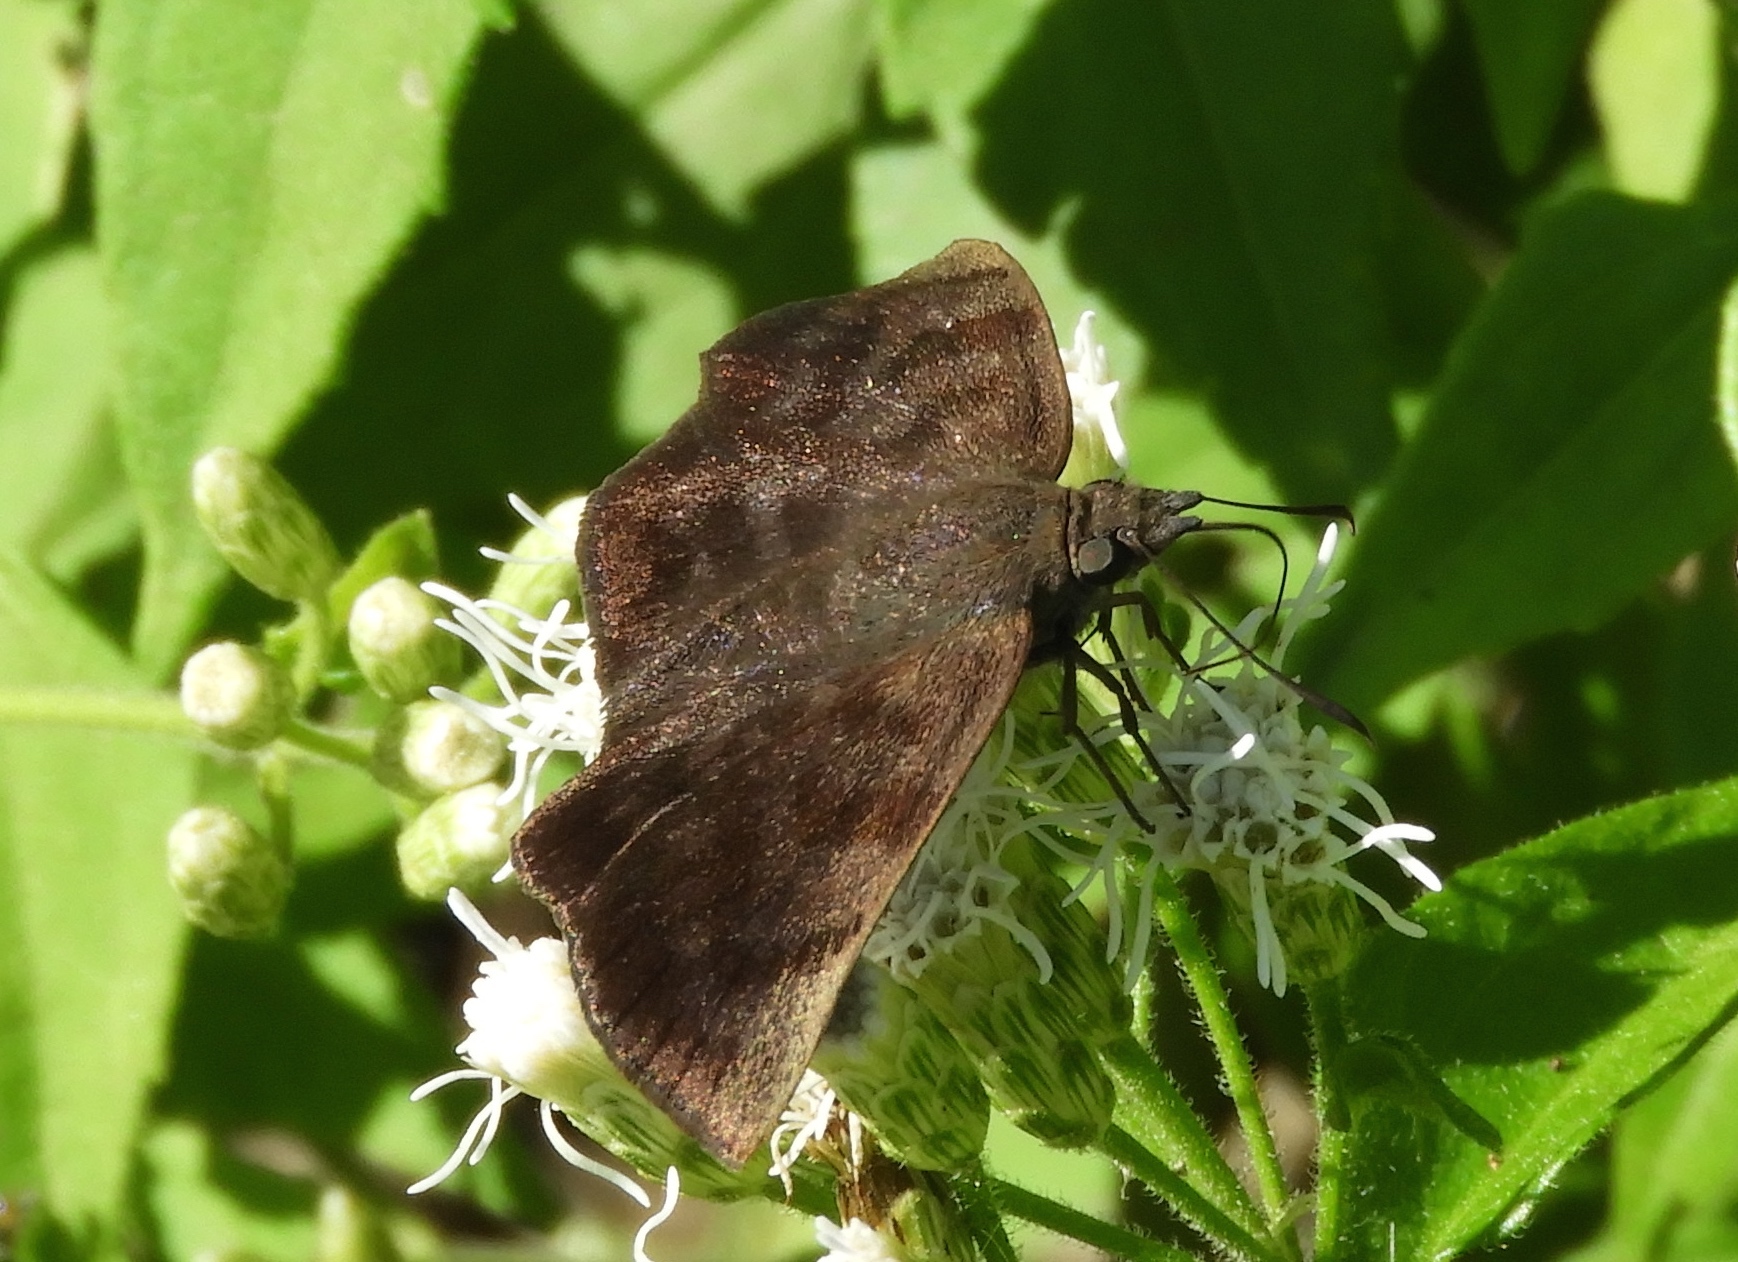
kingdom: Animalia
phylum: Arthropoda
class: Insecta
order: Lepidoptera
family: Hesperiidae
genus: Pellicia
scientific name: Pellicia costimacula
